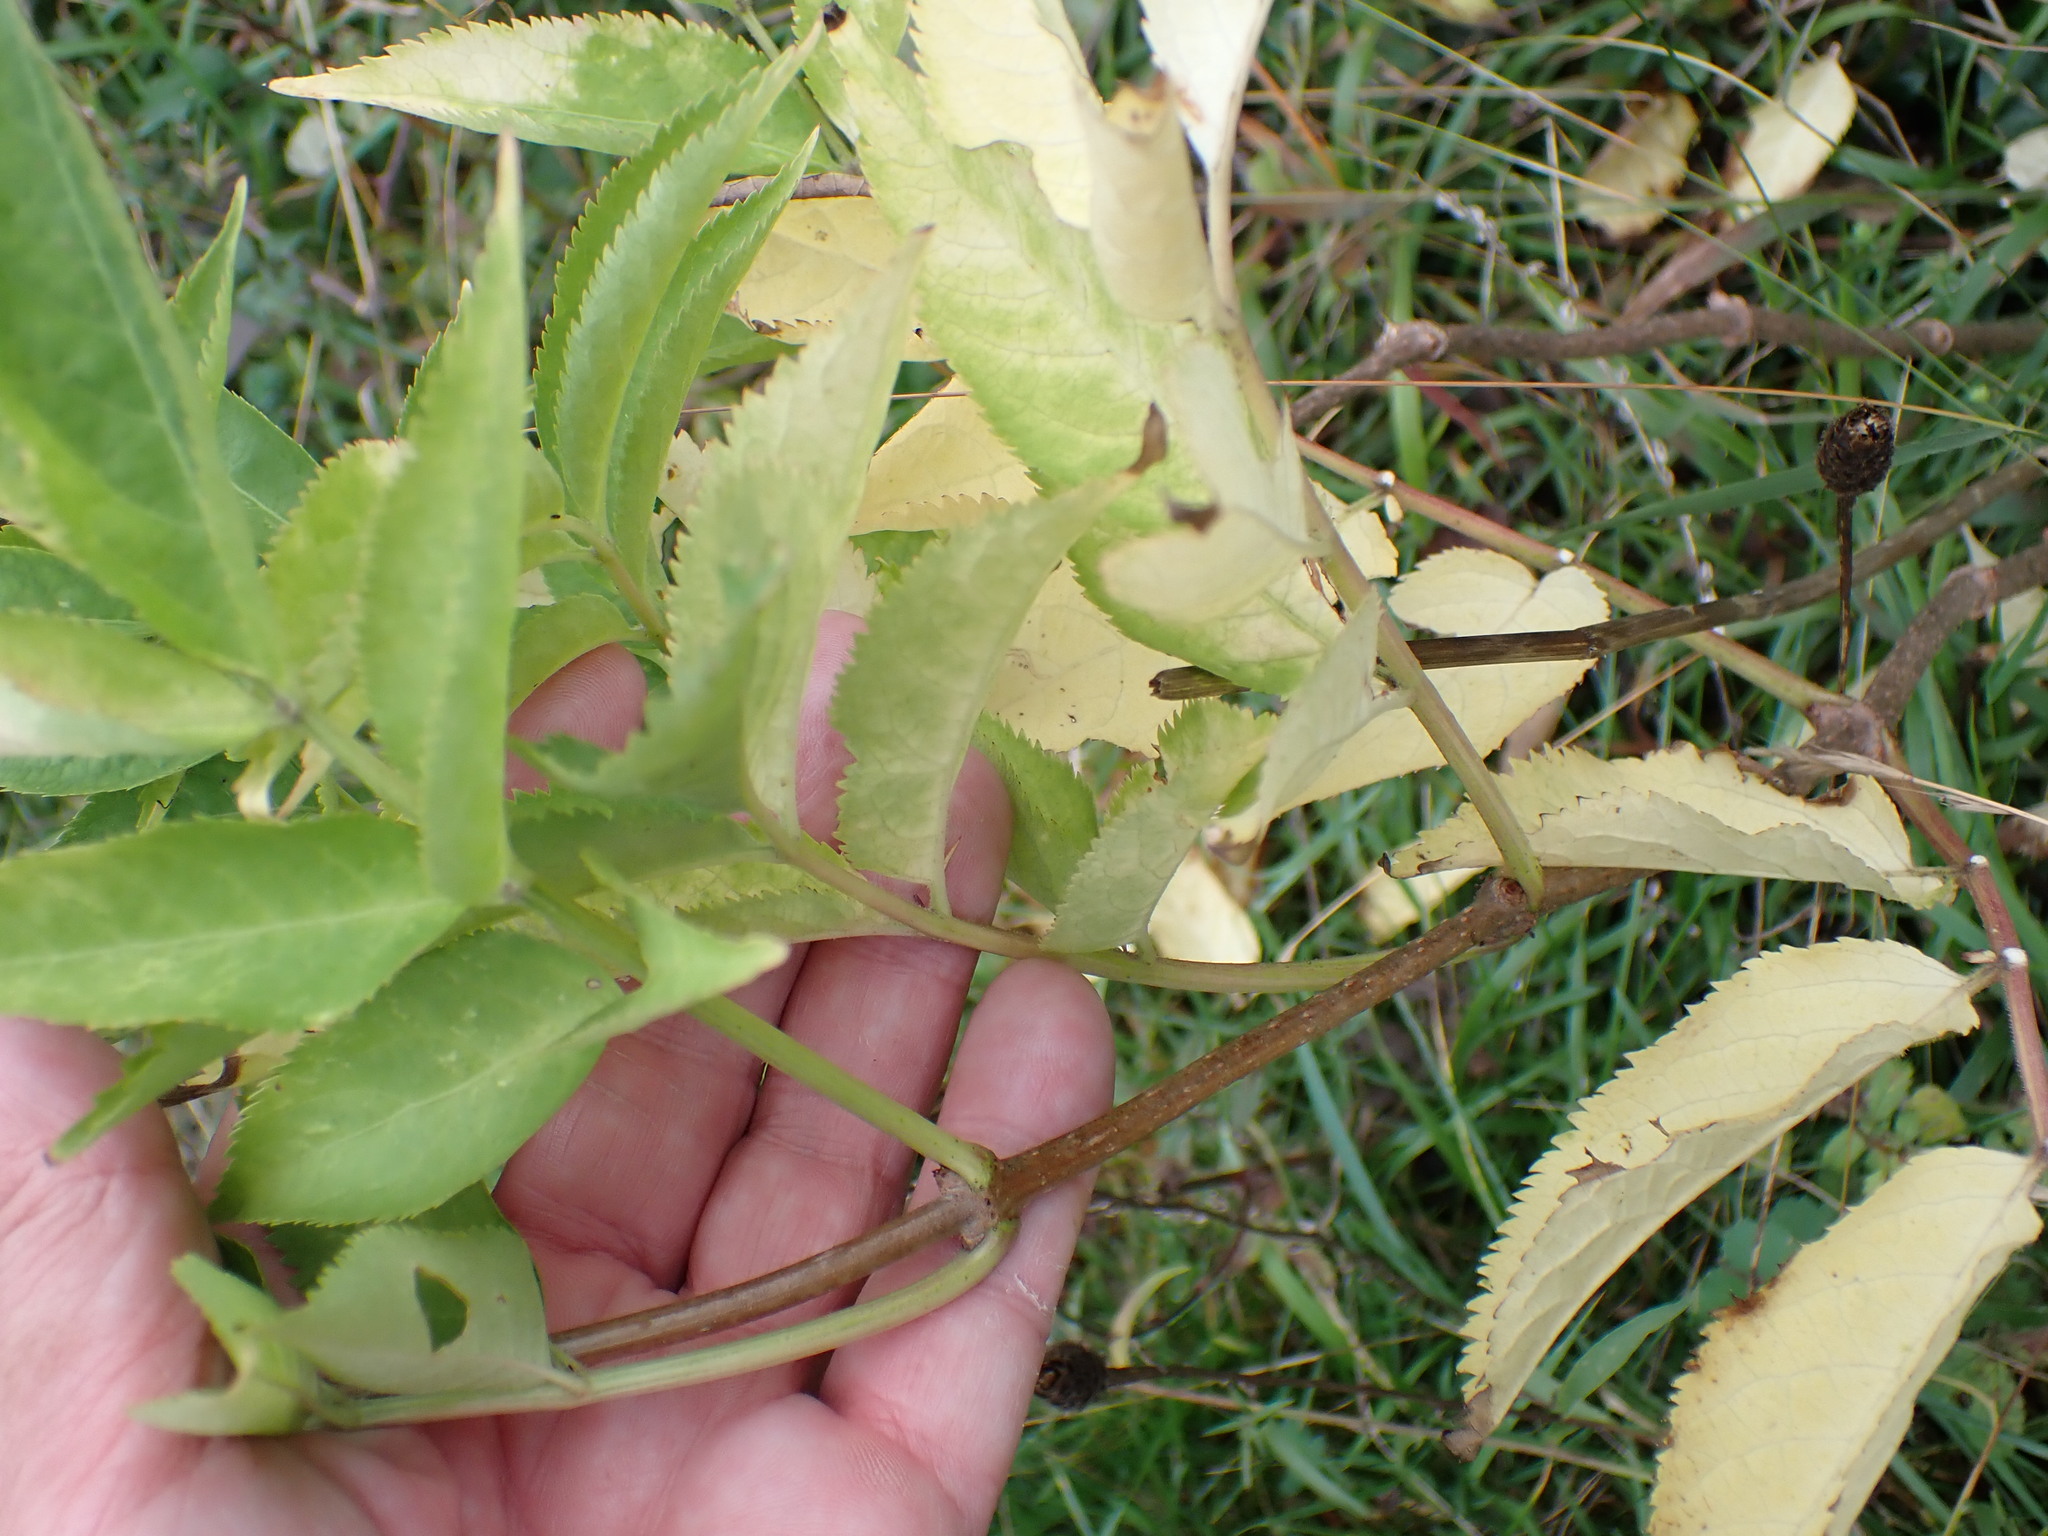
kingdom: Plantae
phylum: Tracheophyta
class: Magnoliopsida
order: Dipsacales
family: Viburnaceae
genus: Sambucus
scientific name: Sambucus nigra
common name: Elder
